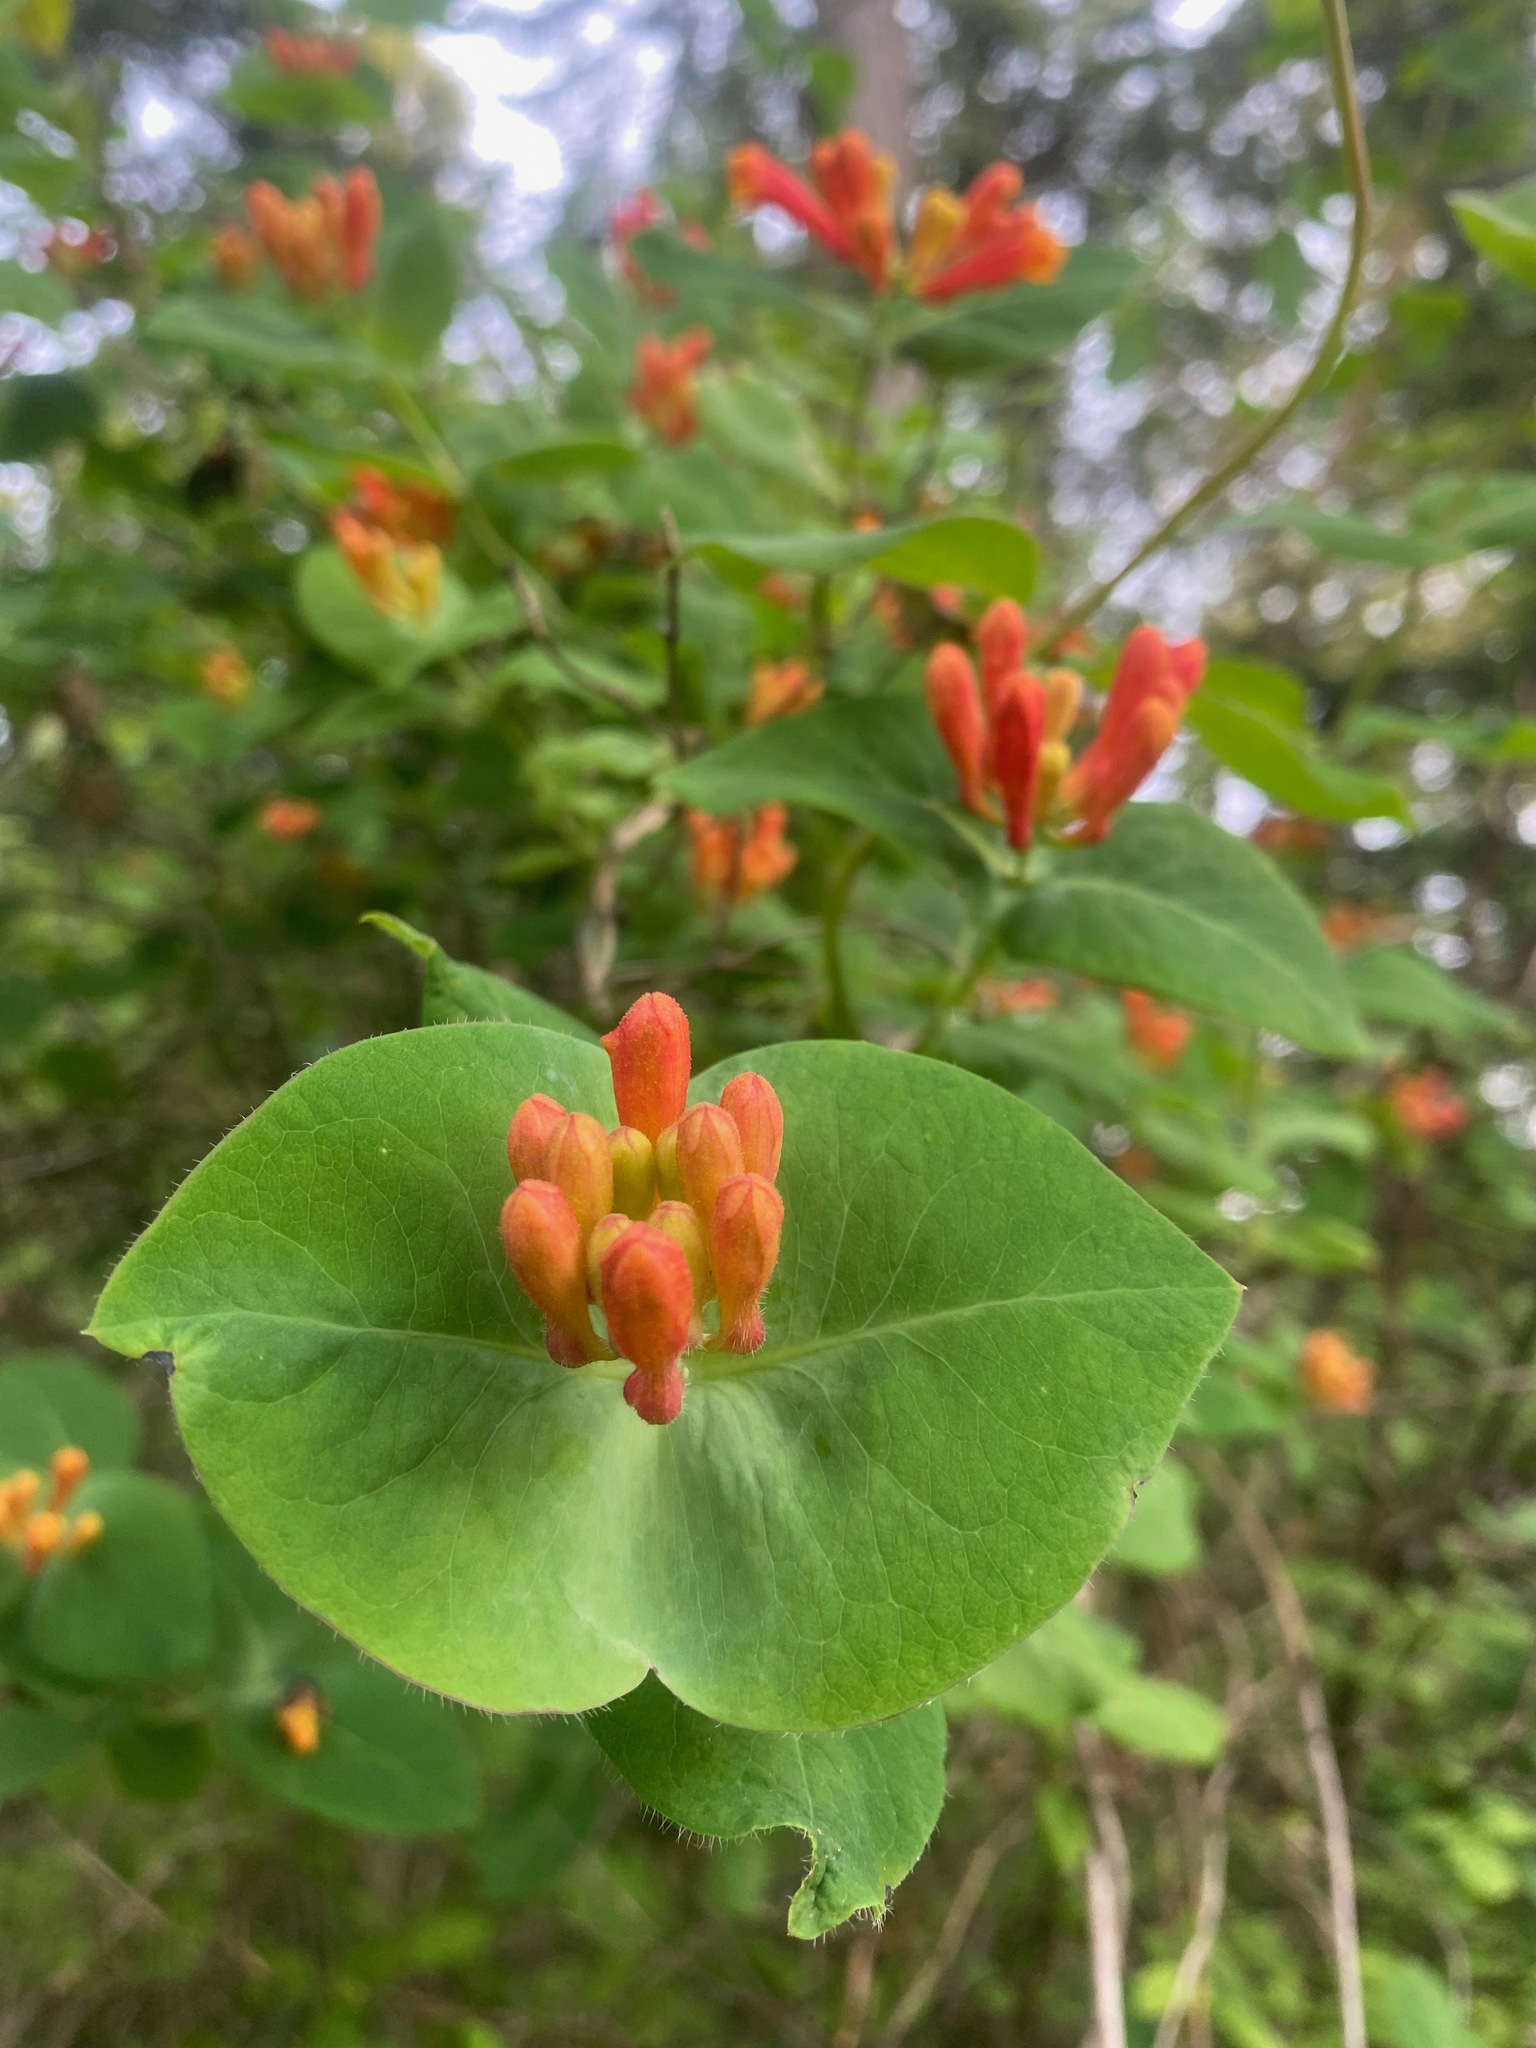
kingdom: Plantae
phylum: Tracheophyta
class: Magnoliopsida
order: Dipsacales
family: Caprifoliaceae
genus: Lonicera
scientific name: Lonicera ciliosa
